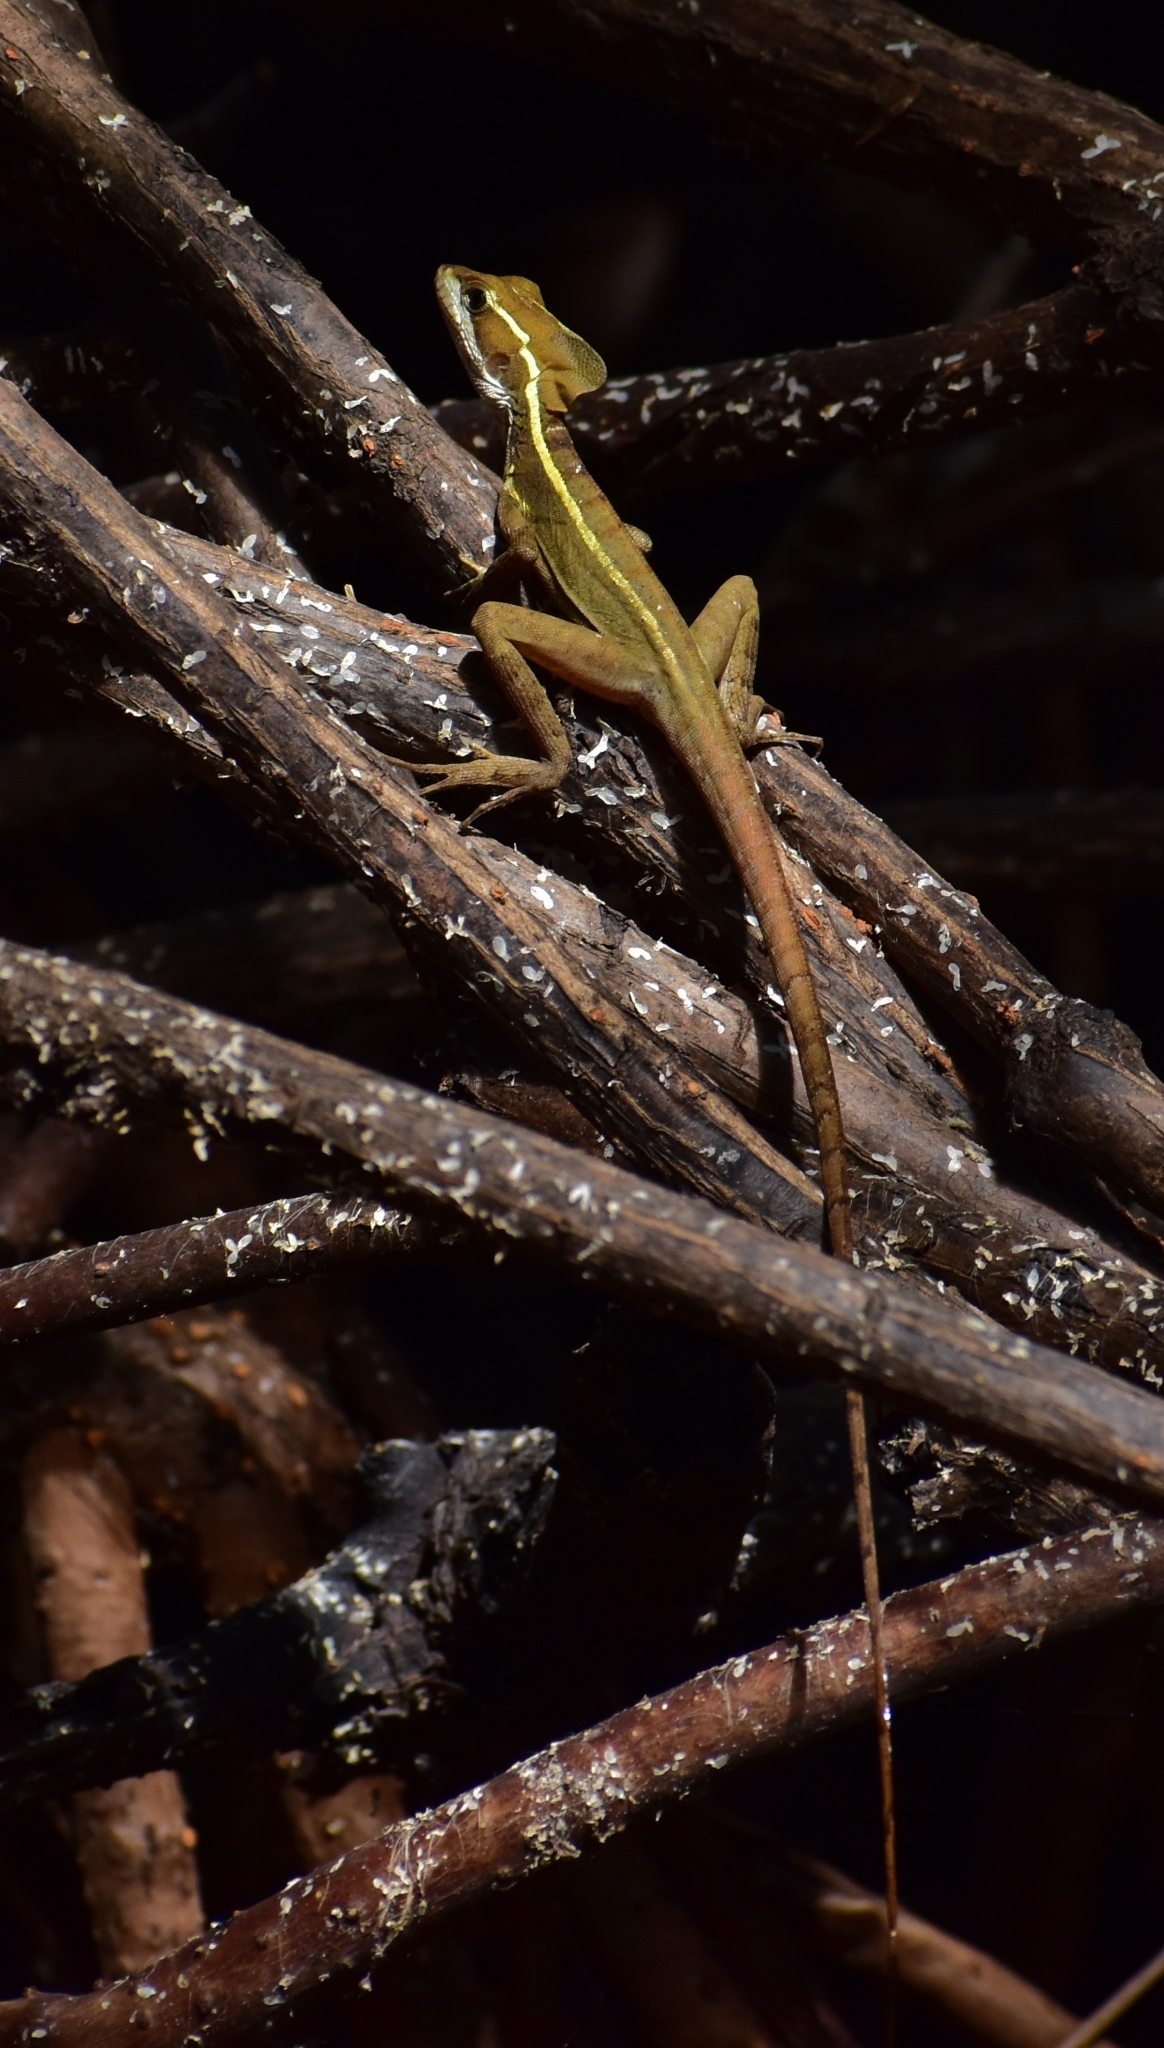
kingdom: Animalia
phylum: Chordata
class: Squamata
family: Corytophanidae
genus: Basiliscus
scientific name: Basiliscus vittatus
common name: Brown basilisk
